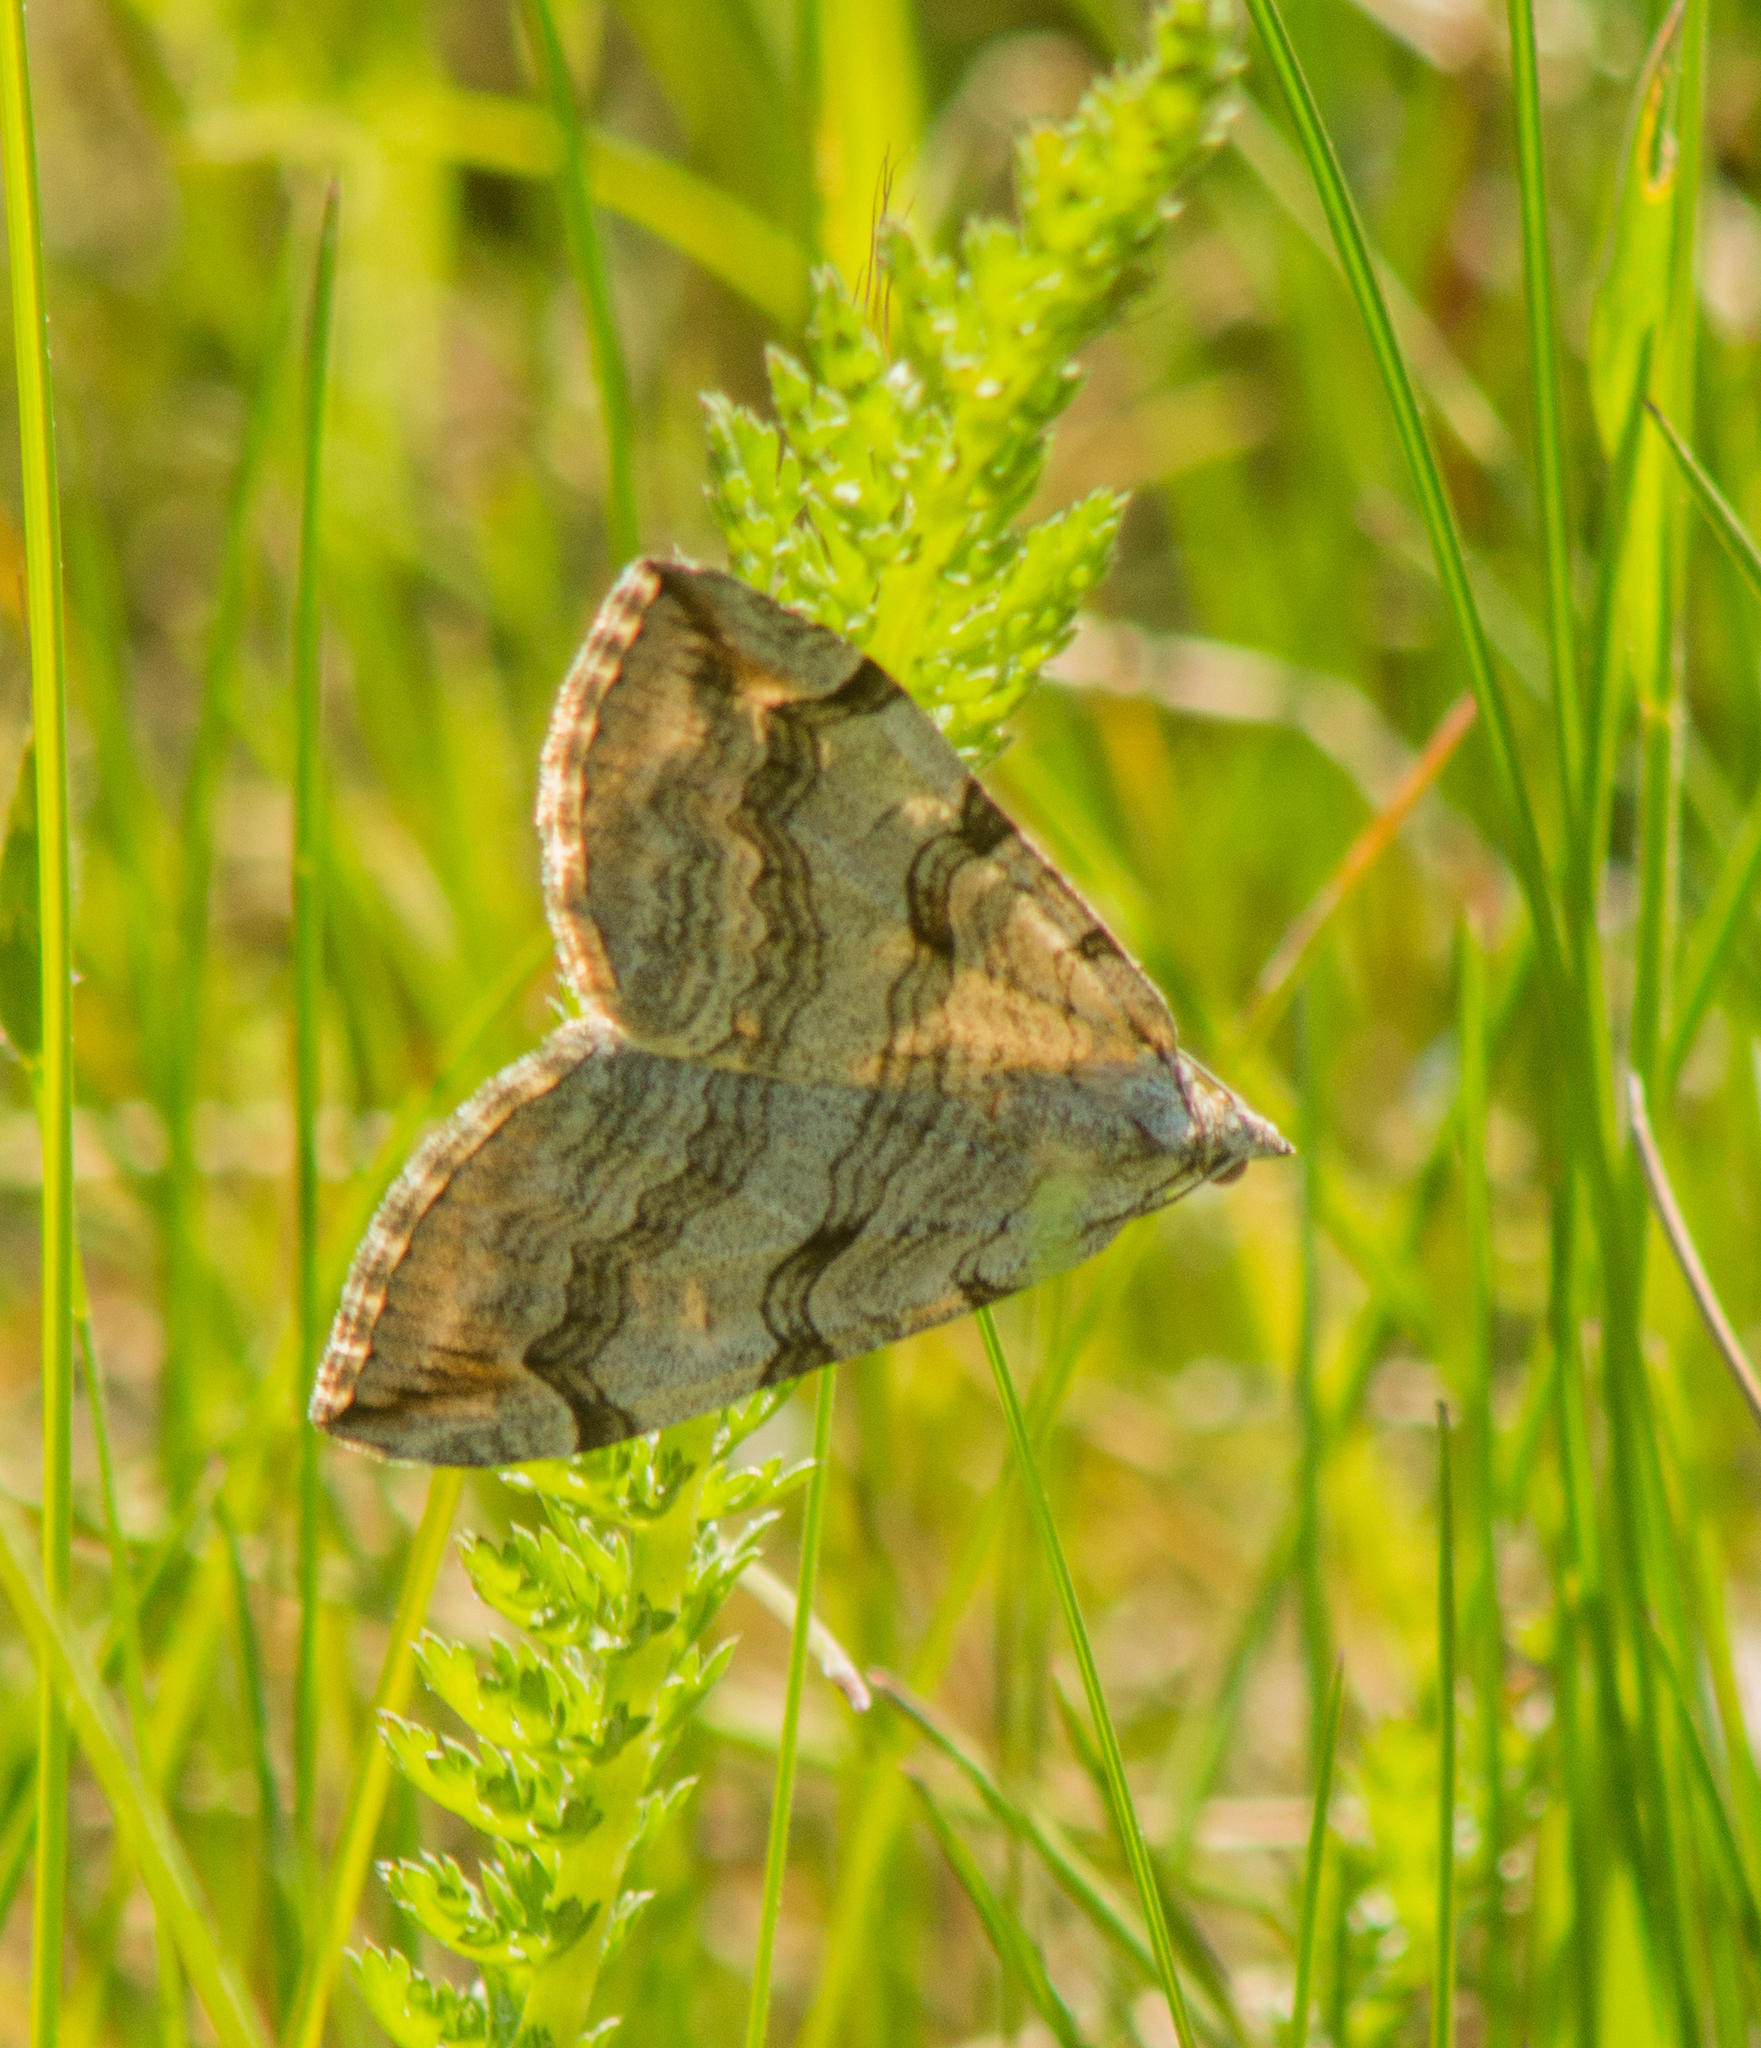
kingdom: Animalia
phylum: Arthropoda
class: Insecta
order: Lepidoptera
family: Geometridae
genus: Aplocera
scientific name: Aplocera plagiata
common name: Treble-bar
